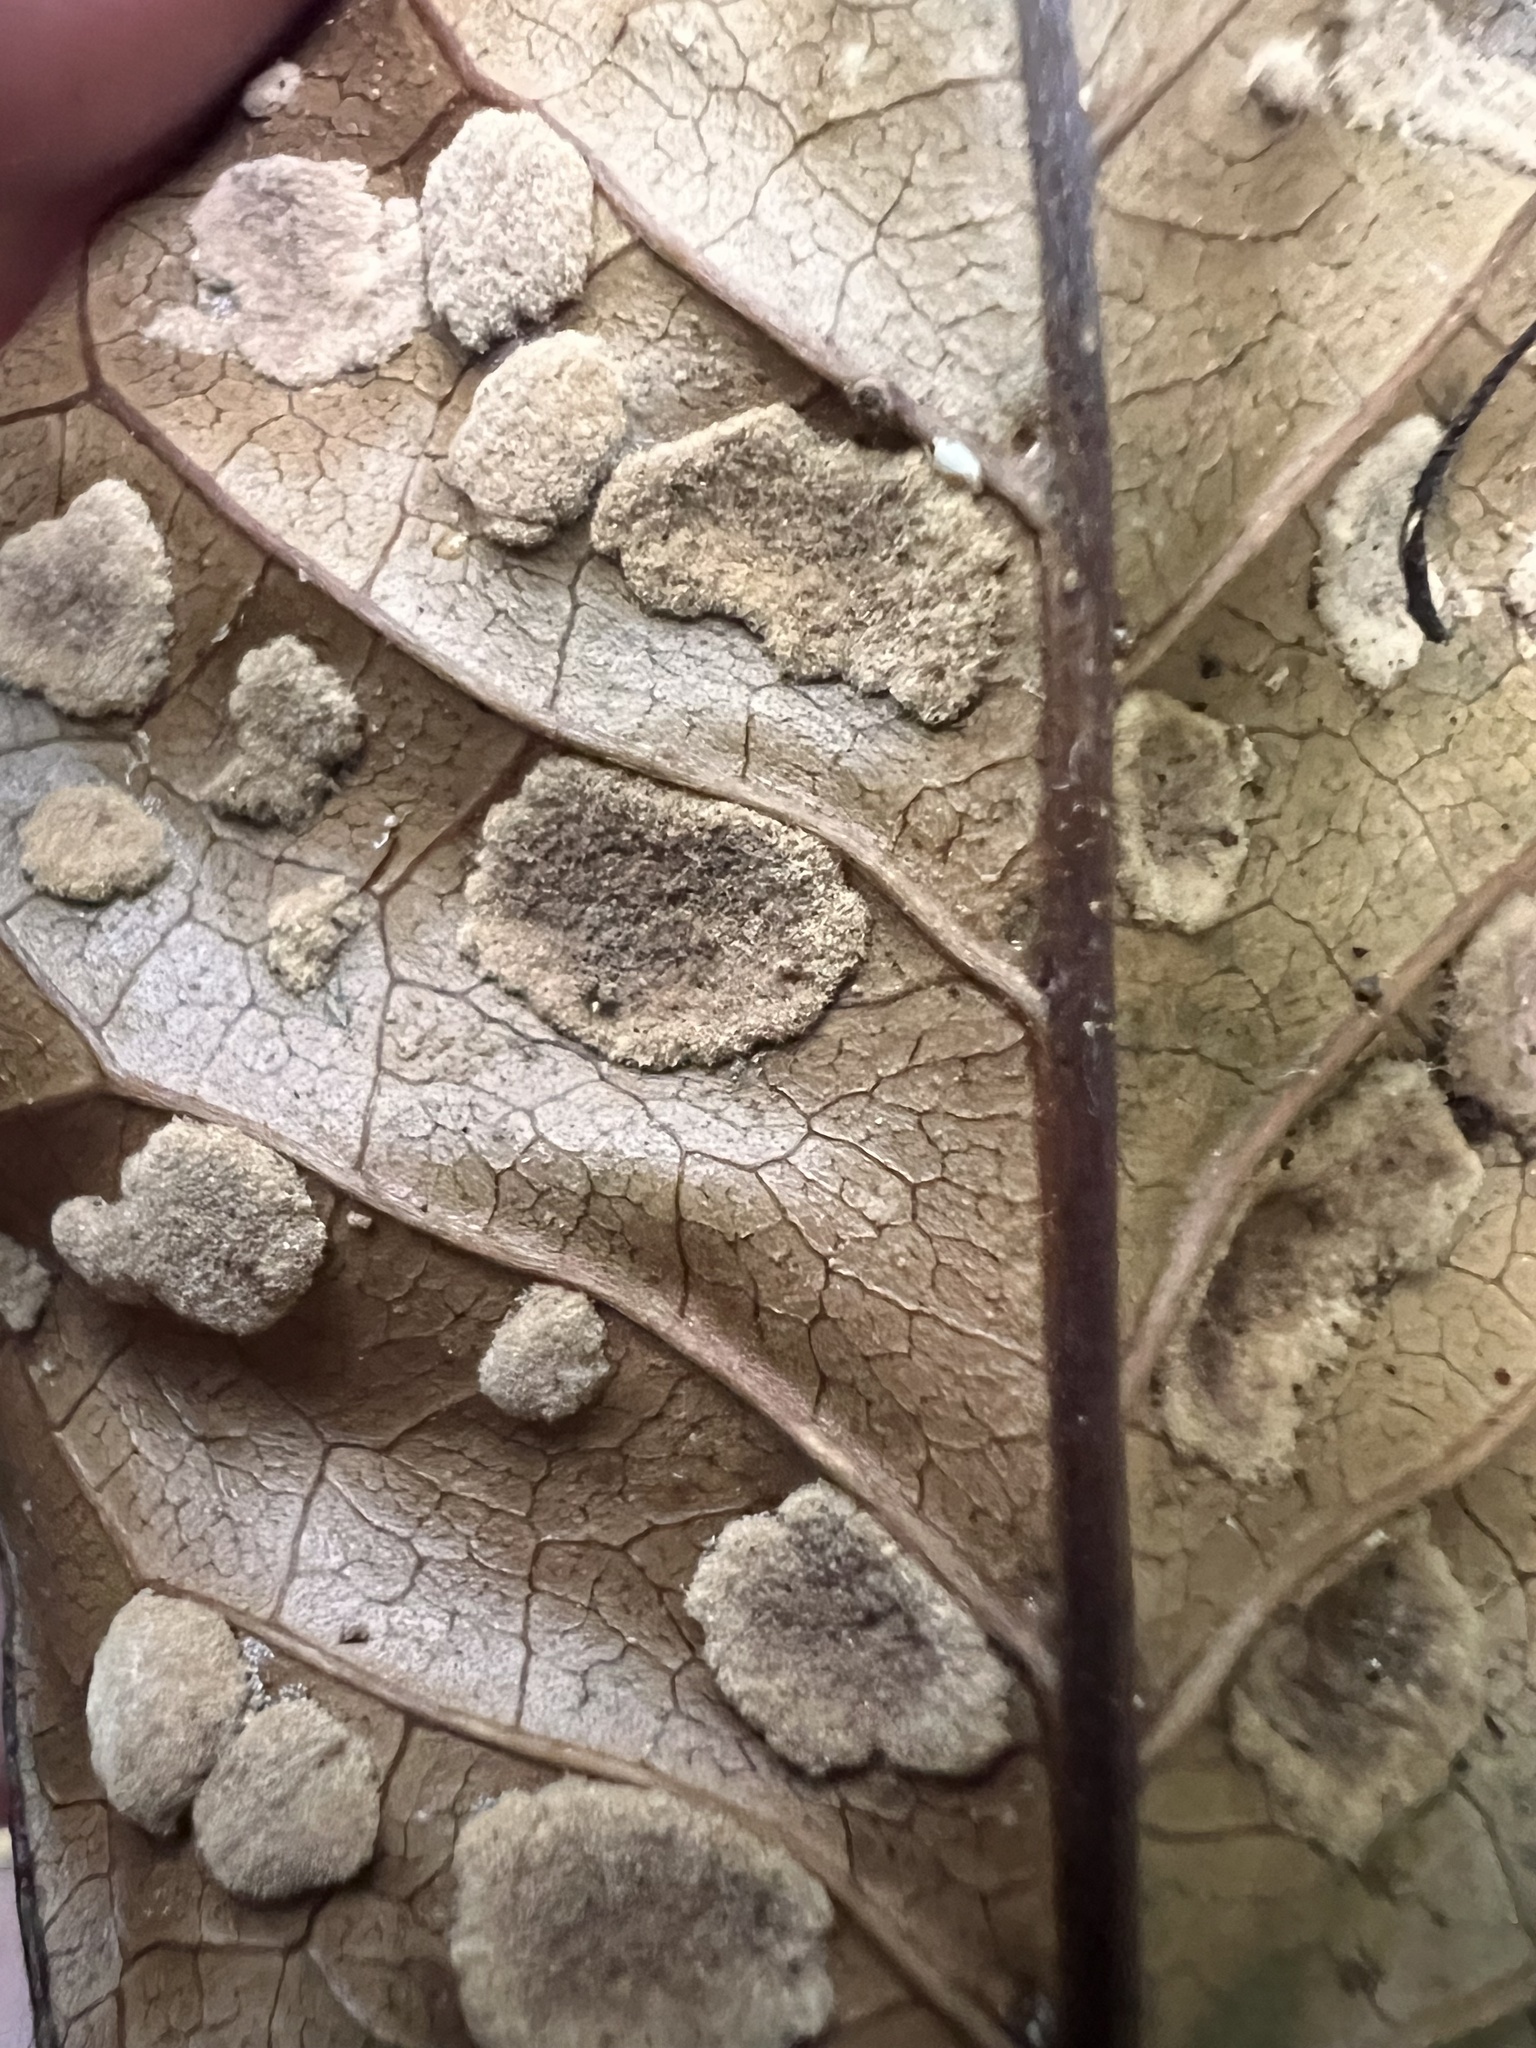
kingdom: Animalia
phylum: Arthropoda
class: Arachnida
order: Trombidiformes
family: Eriophyidae
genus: Acalitus
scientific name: Acalitus
